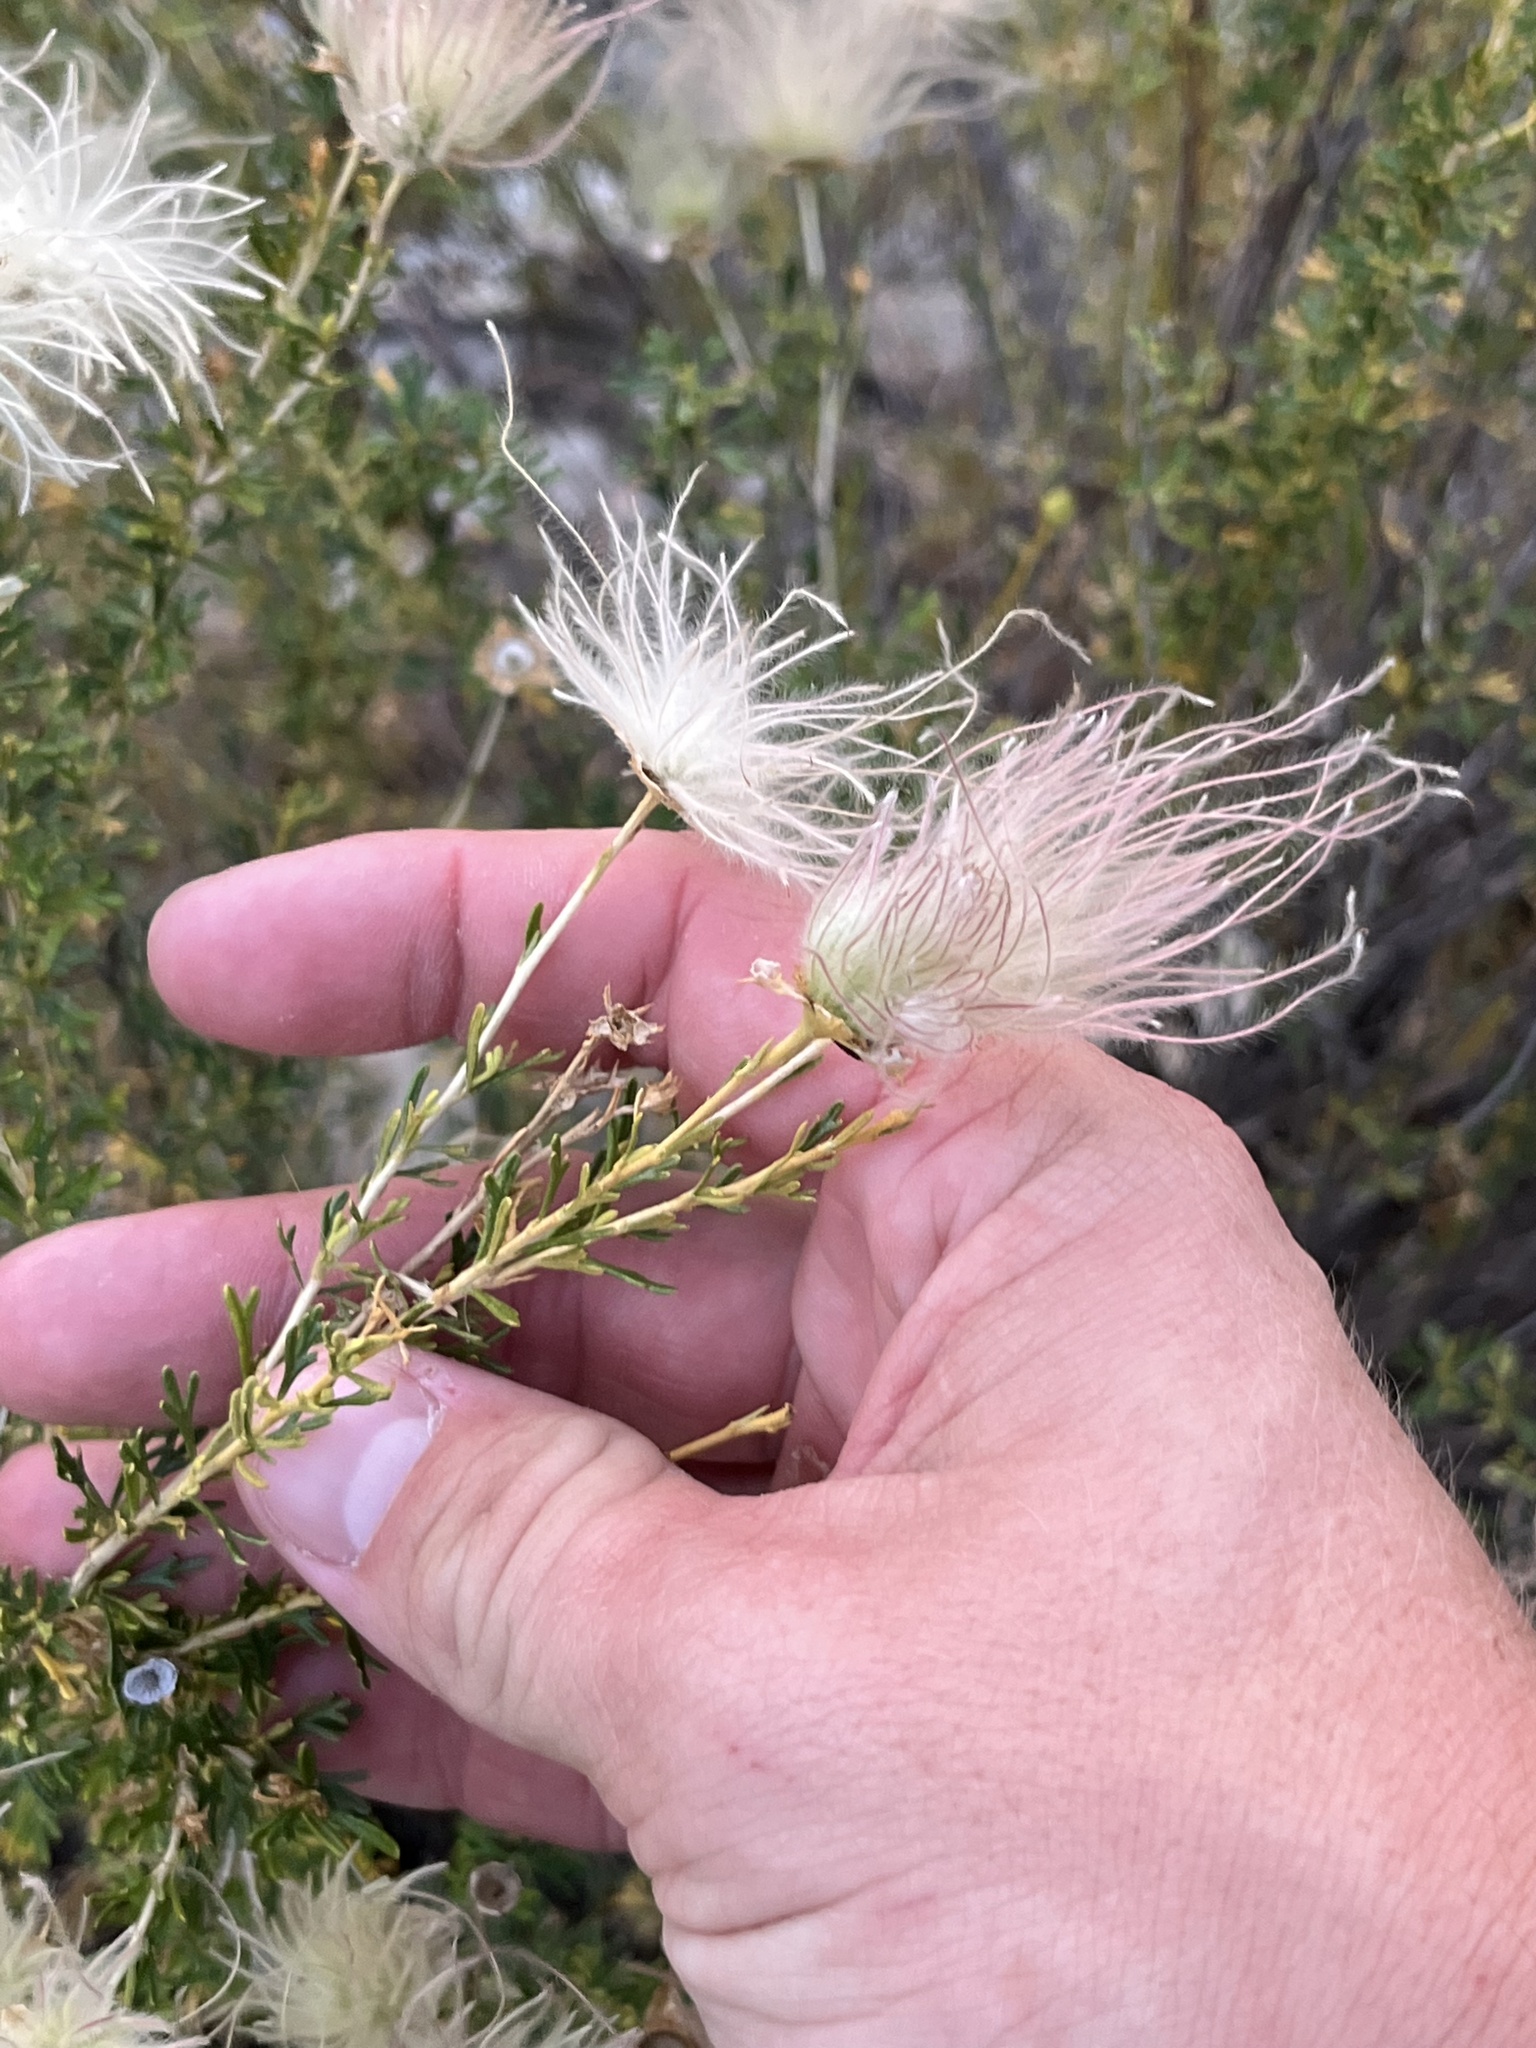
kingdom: Plantae
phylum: Tracheophyta
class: Magnoliopsida
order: Rosales
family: Rosaceae
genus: Fallugia
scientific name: Fallugia paradoxa
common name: Apache-plume
